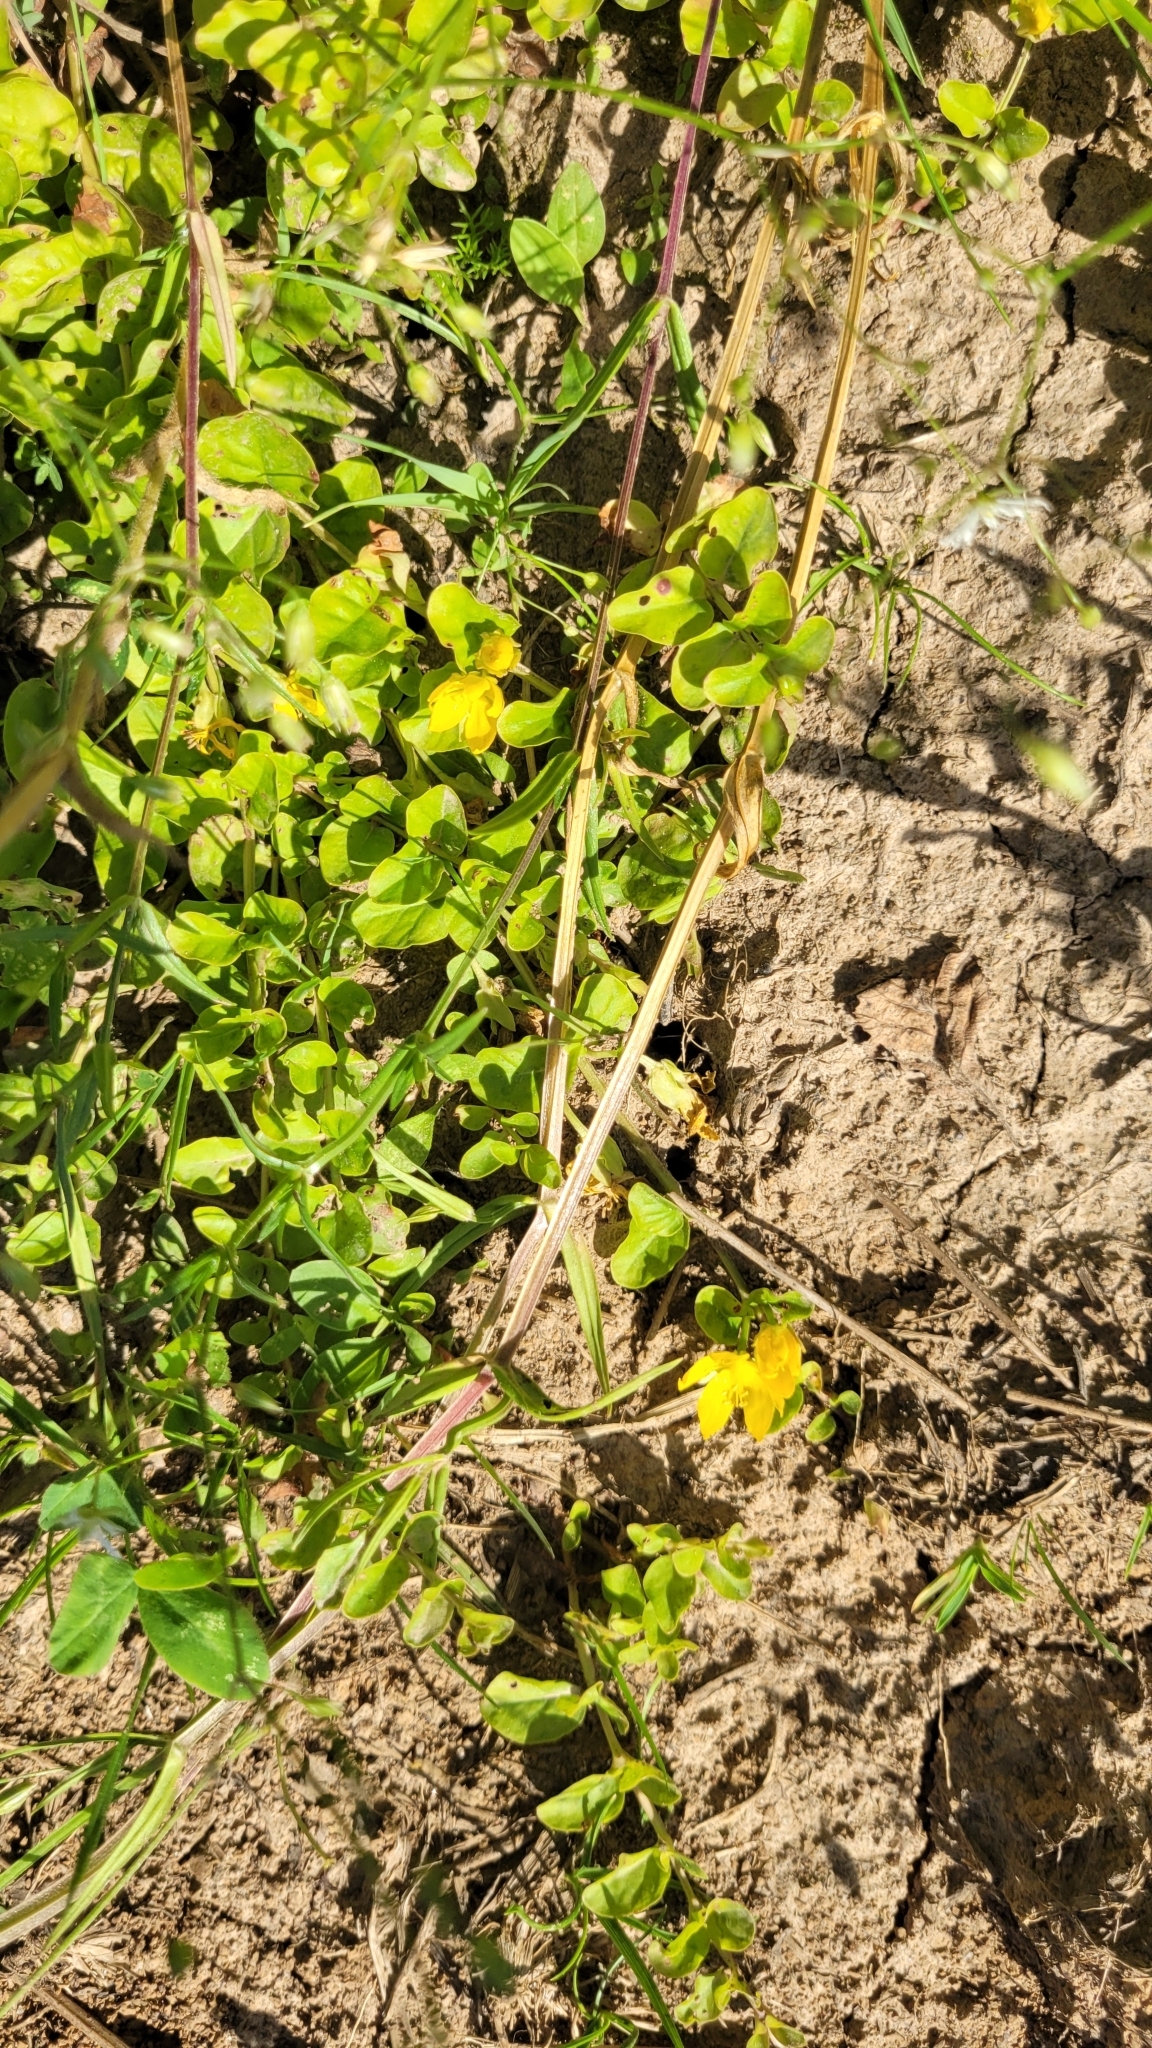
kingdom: Plantae
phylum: Tracheophyta
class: Magnoliopsida
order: Ericales
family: Primulaceae
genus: Lysimachia
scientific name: Lysimachia nummularia
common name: Moneywort
